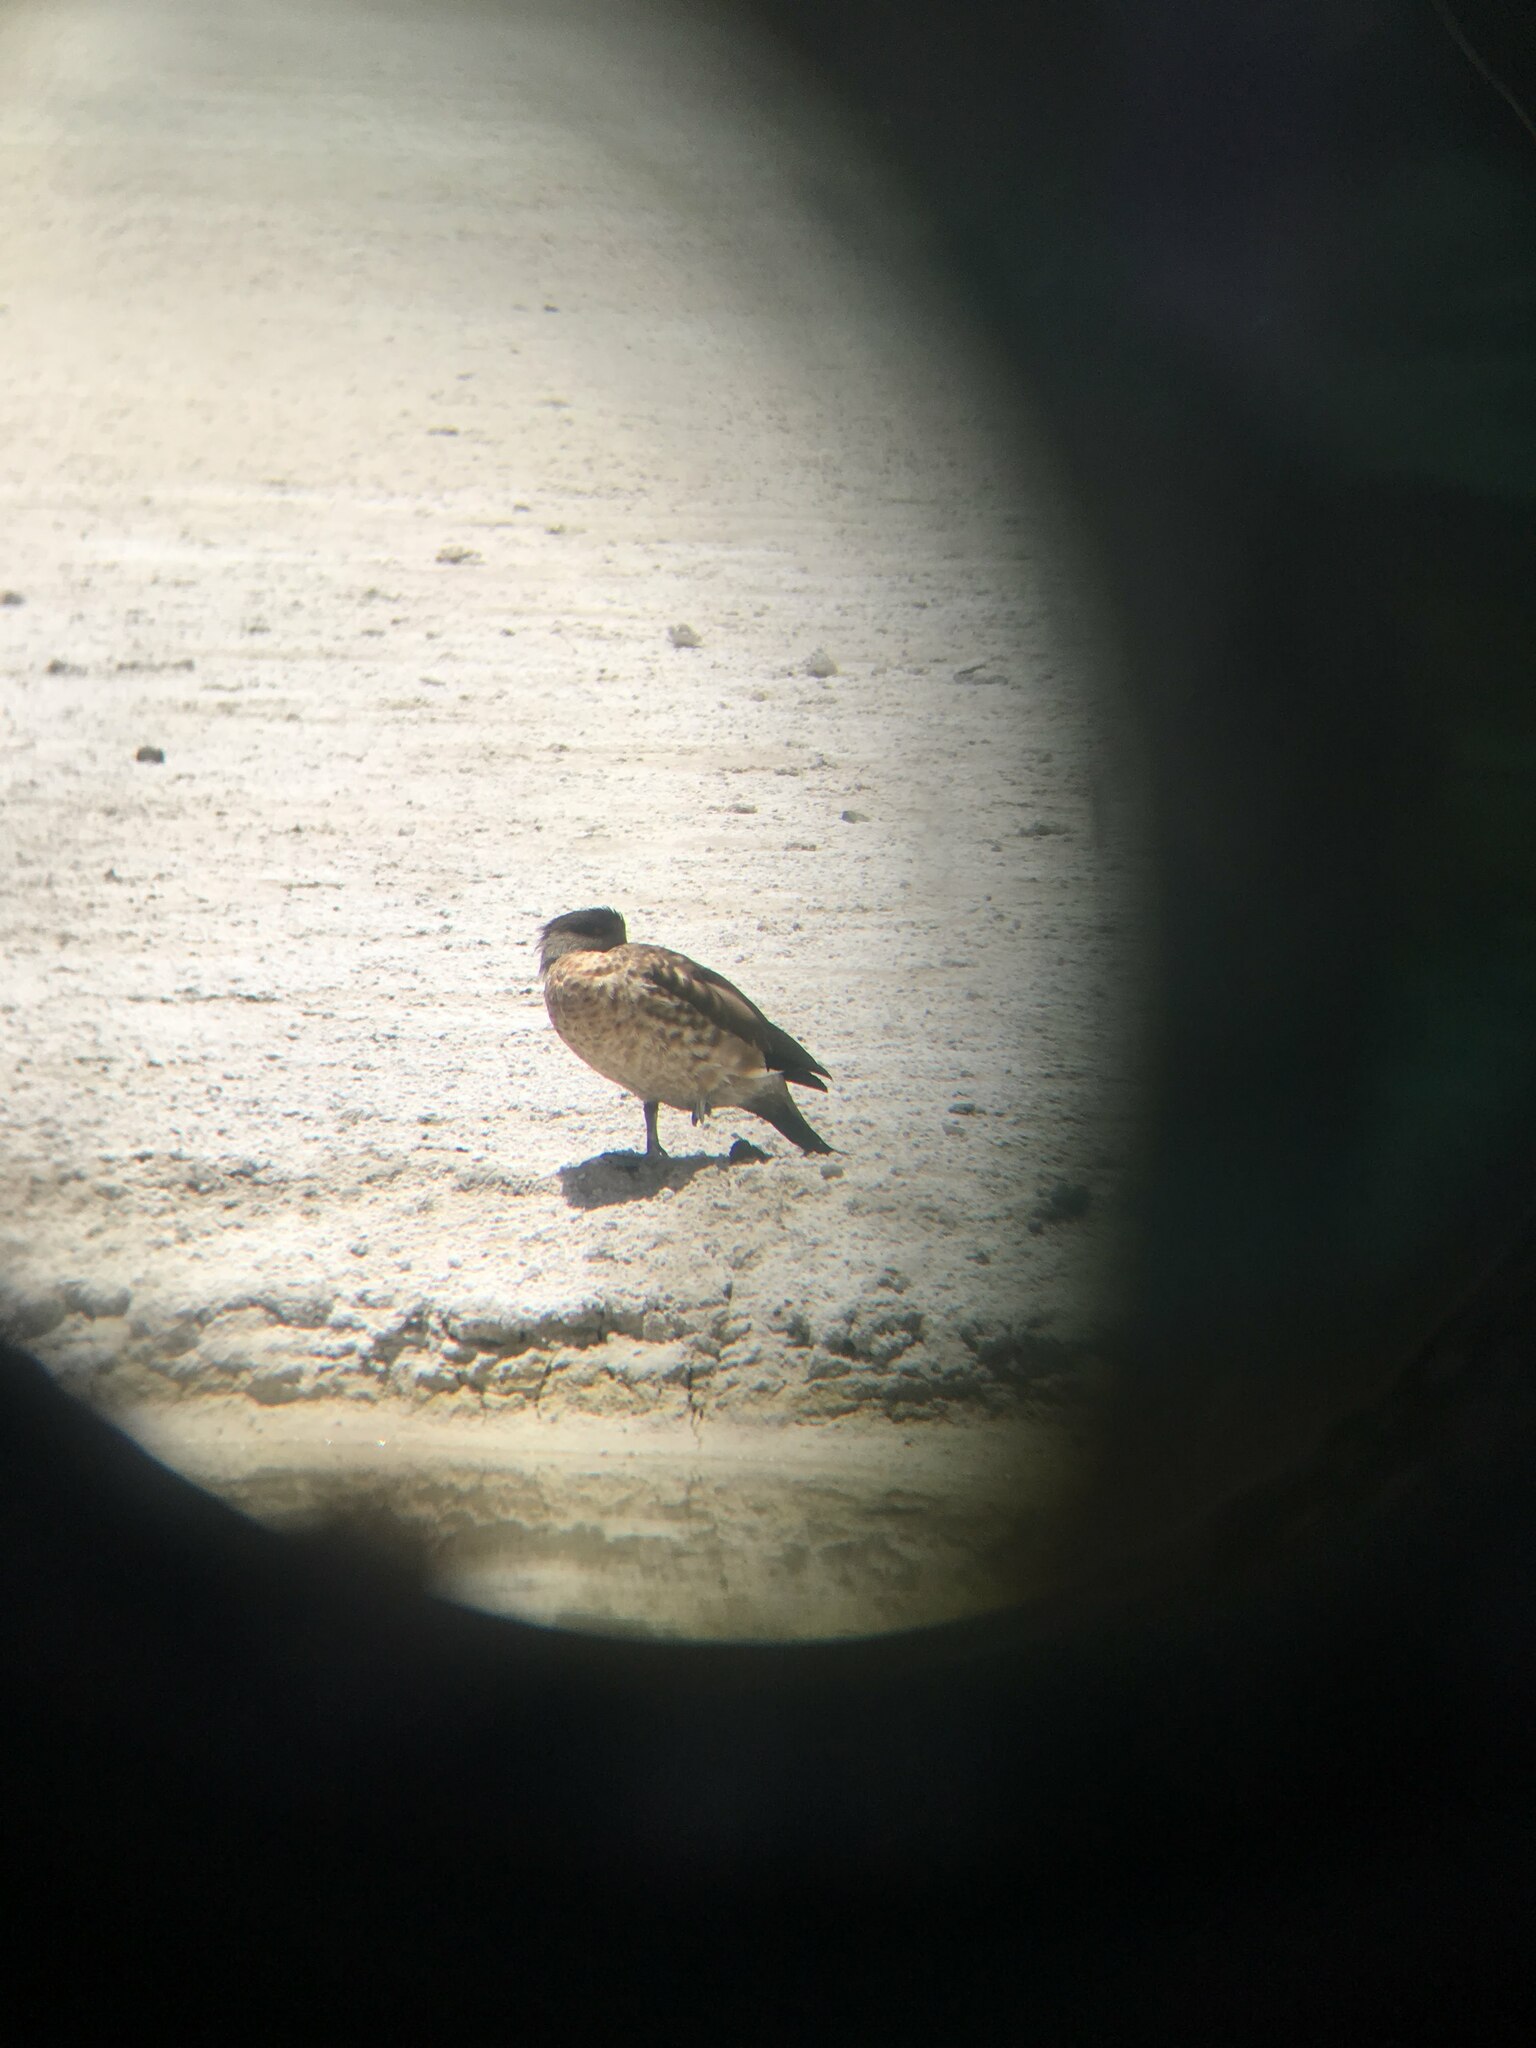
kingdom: Animalia
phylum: Chordata
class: Aves
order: Anseriformes
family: Anatidae
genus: Lophonetta
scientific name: Lophonetta specularioides
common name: Crested duck
